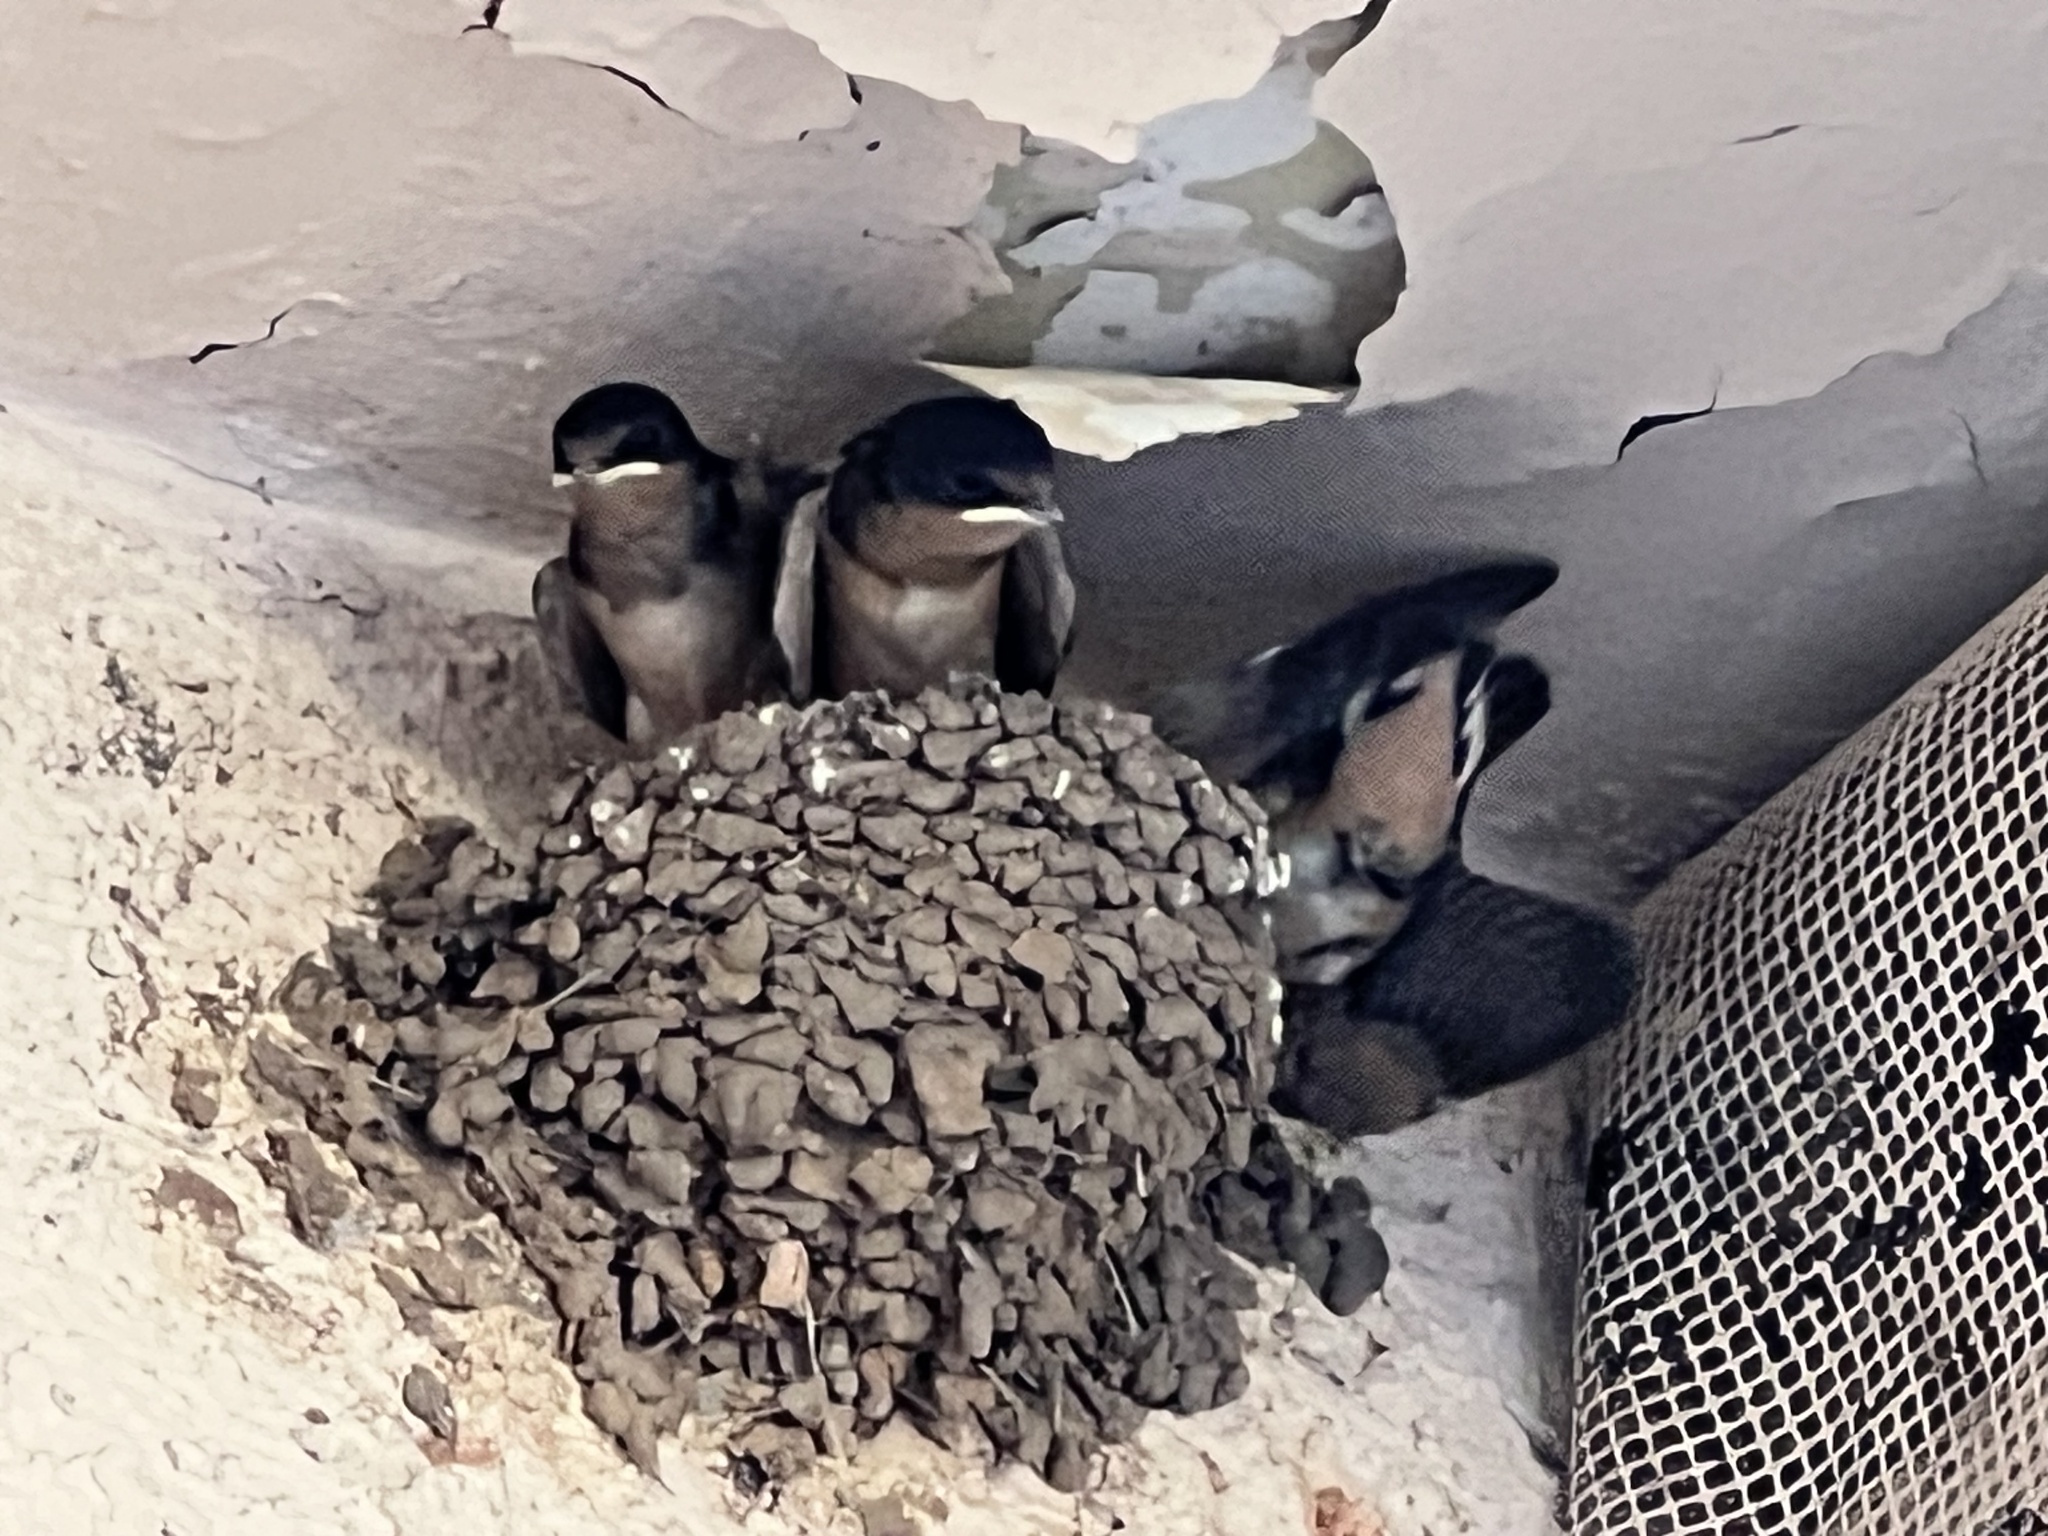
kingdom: Animalia
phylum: Chordata
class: Aves
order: Passeriformes
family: Hirundinidae
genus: Hirundo
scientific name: Hirundo rustica
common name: Barn swallow
